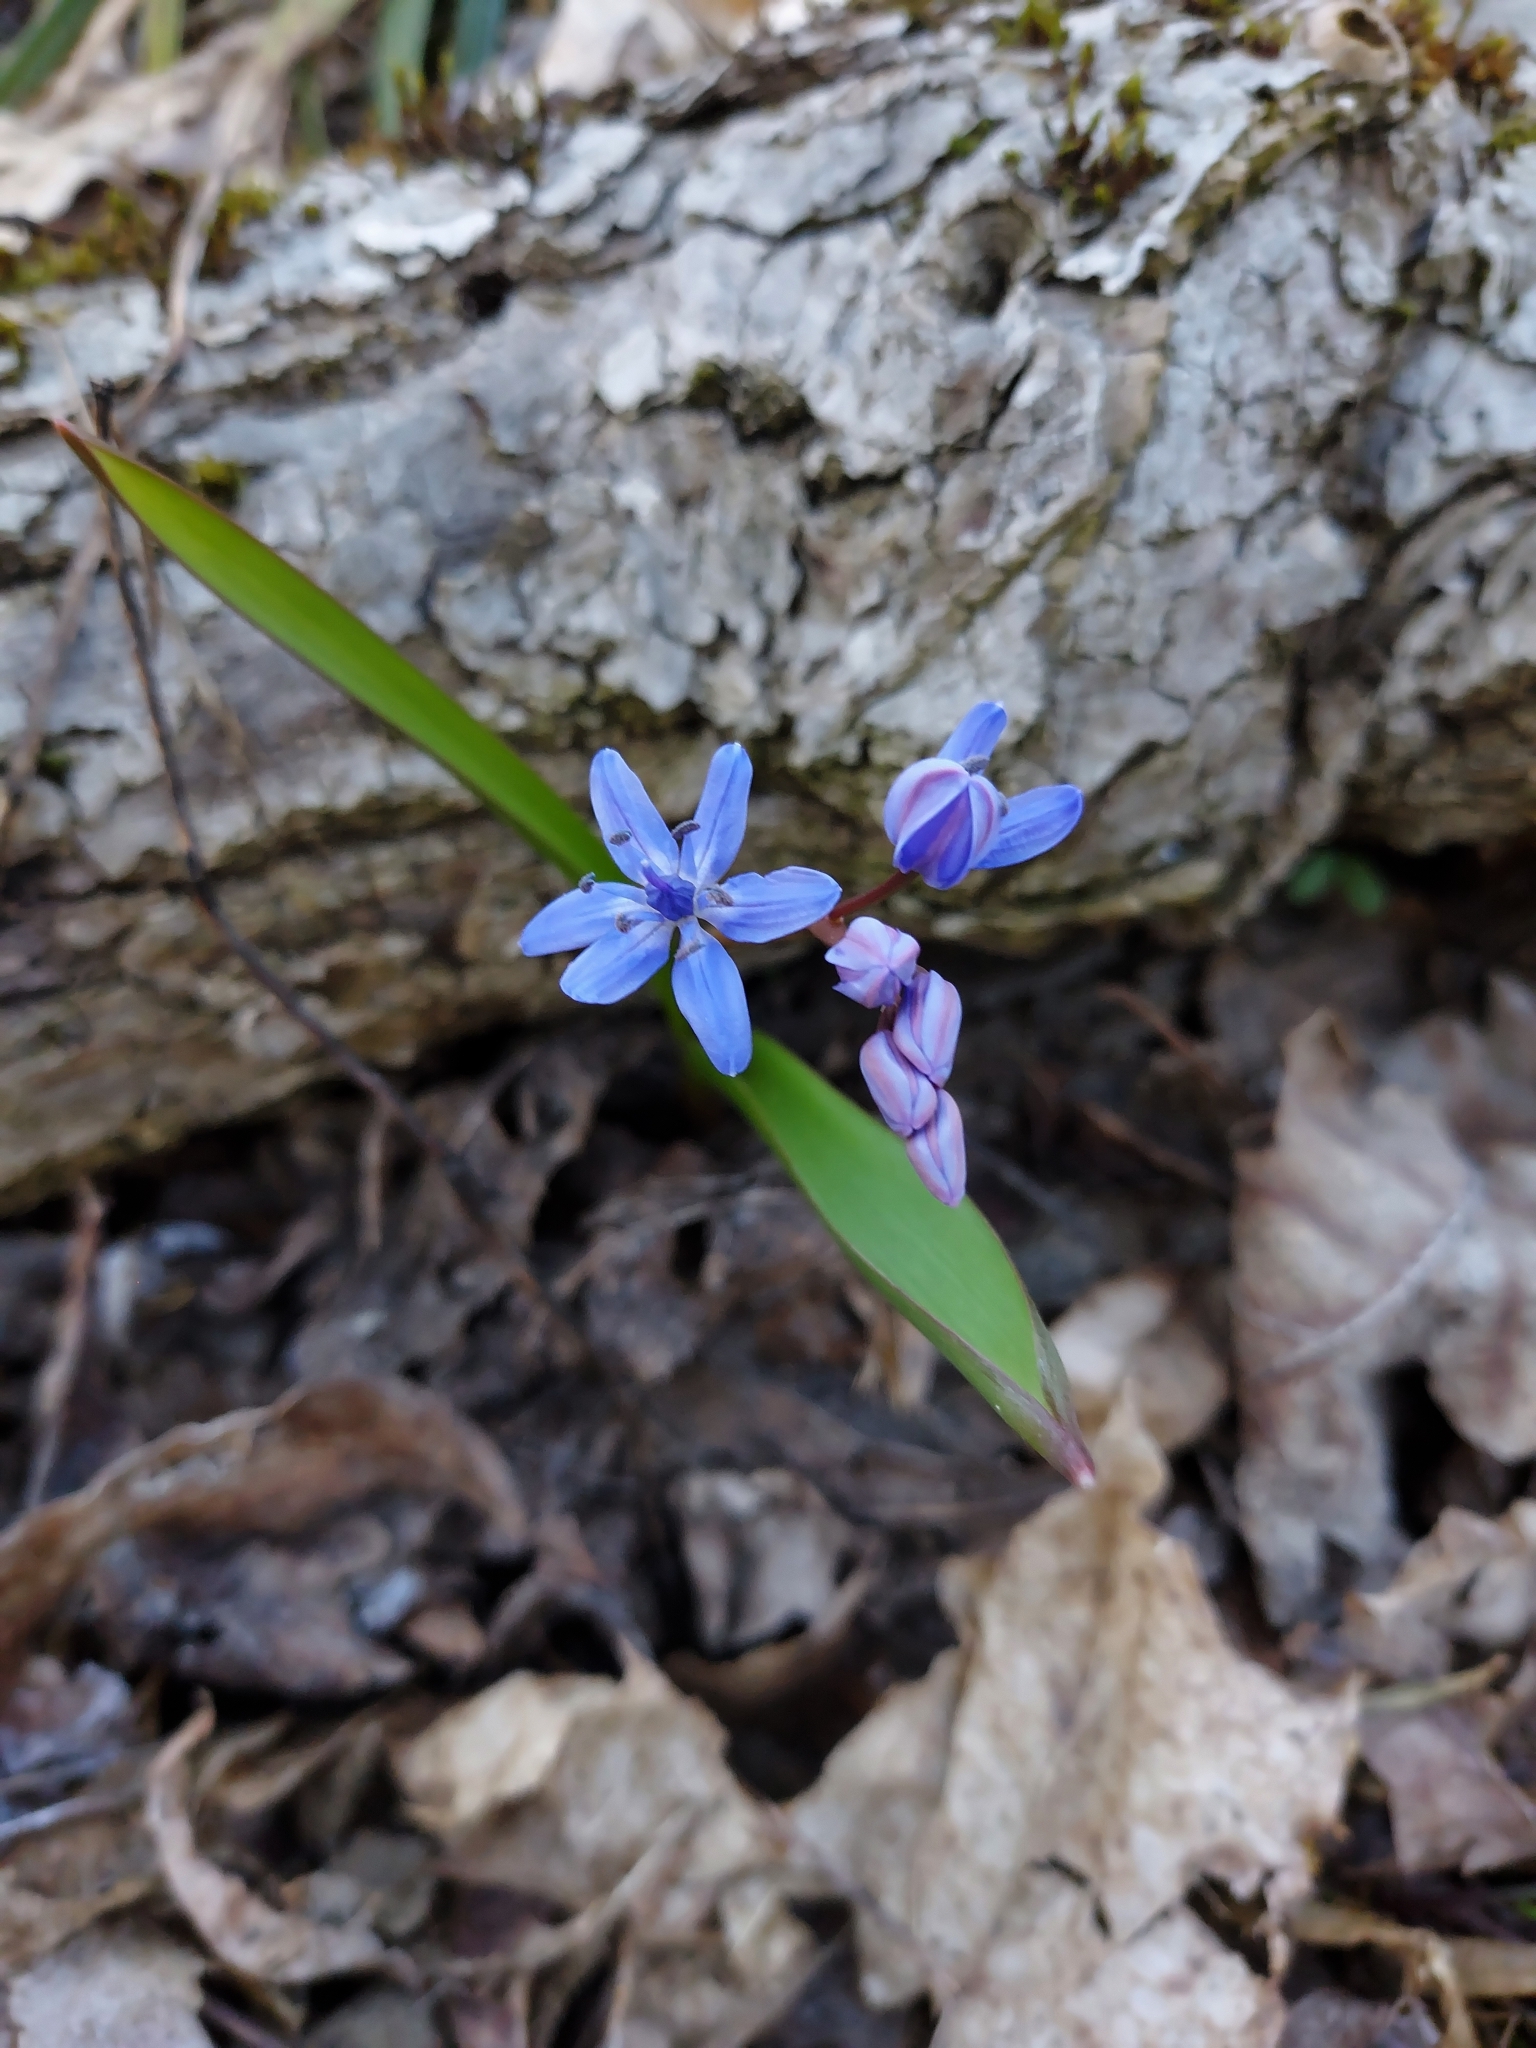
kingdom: Plantae
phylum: Tracheophyta
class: Liliopsida
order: Asparagales
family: Asparagaceae
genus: Scilla
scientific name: Scilla bifolia
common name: Alpine squill
